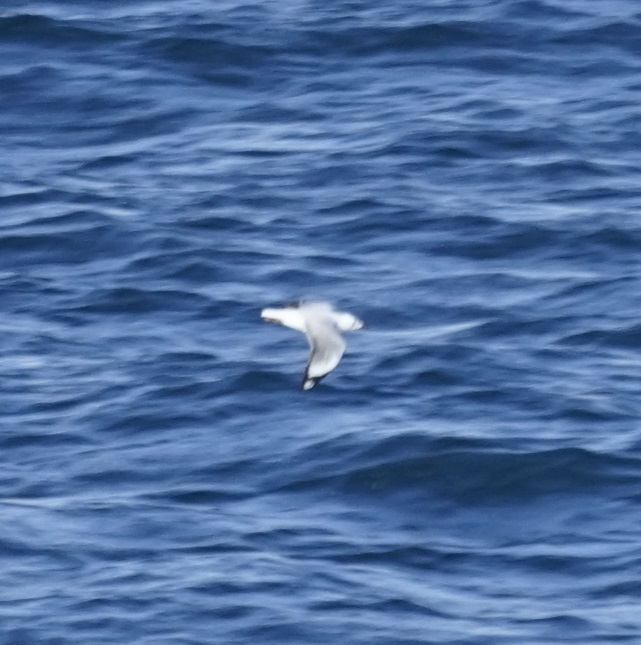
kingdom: Animalia
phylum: Chordata
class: Aves
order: Charadriiformes
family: Laridae
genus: Chroicocephalus
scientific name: Chroicocephalus novaehollandiae
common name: Silver gull
